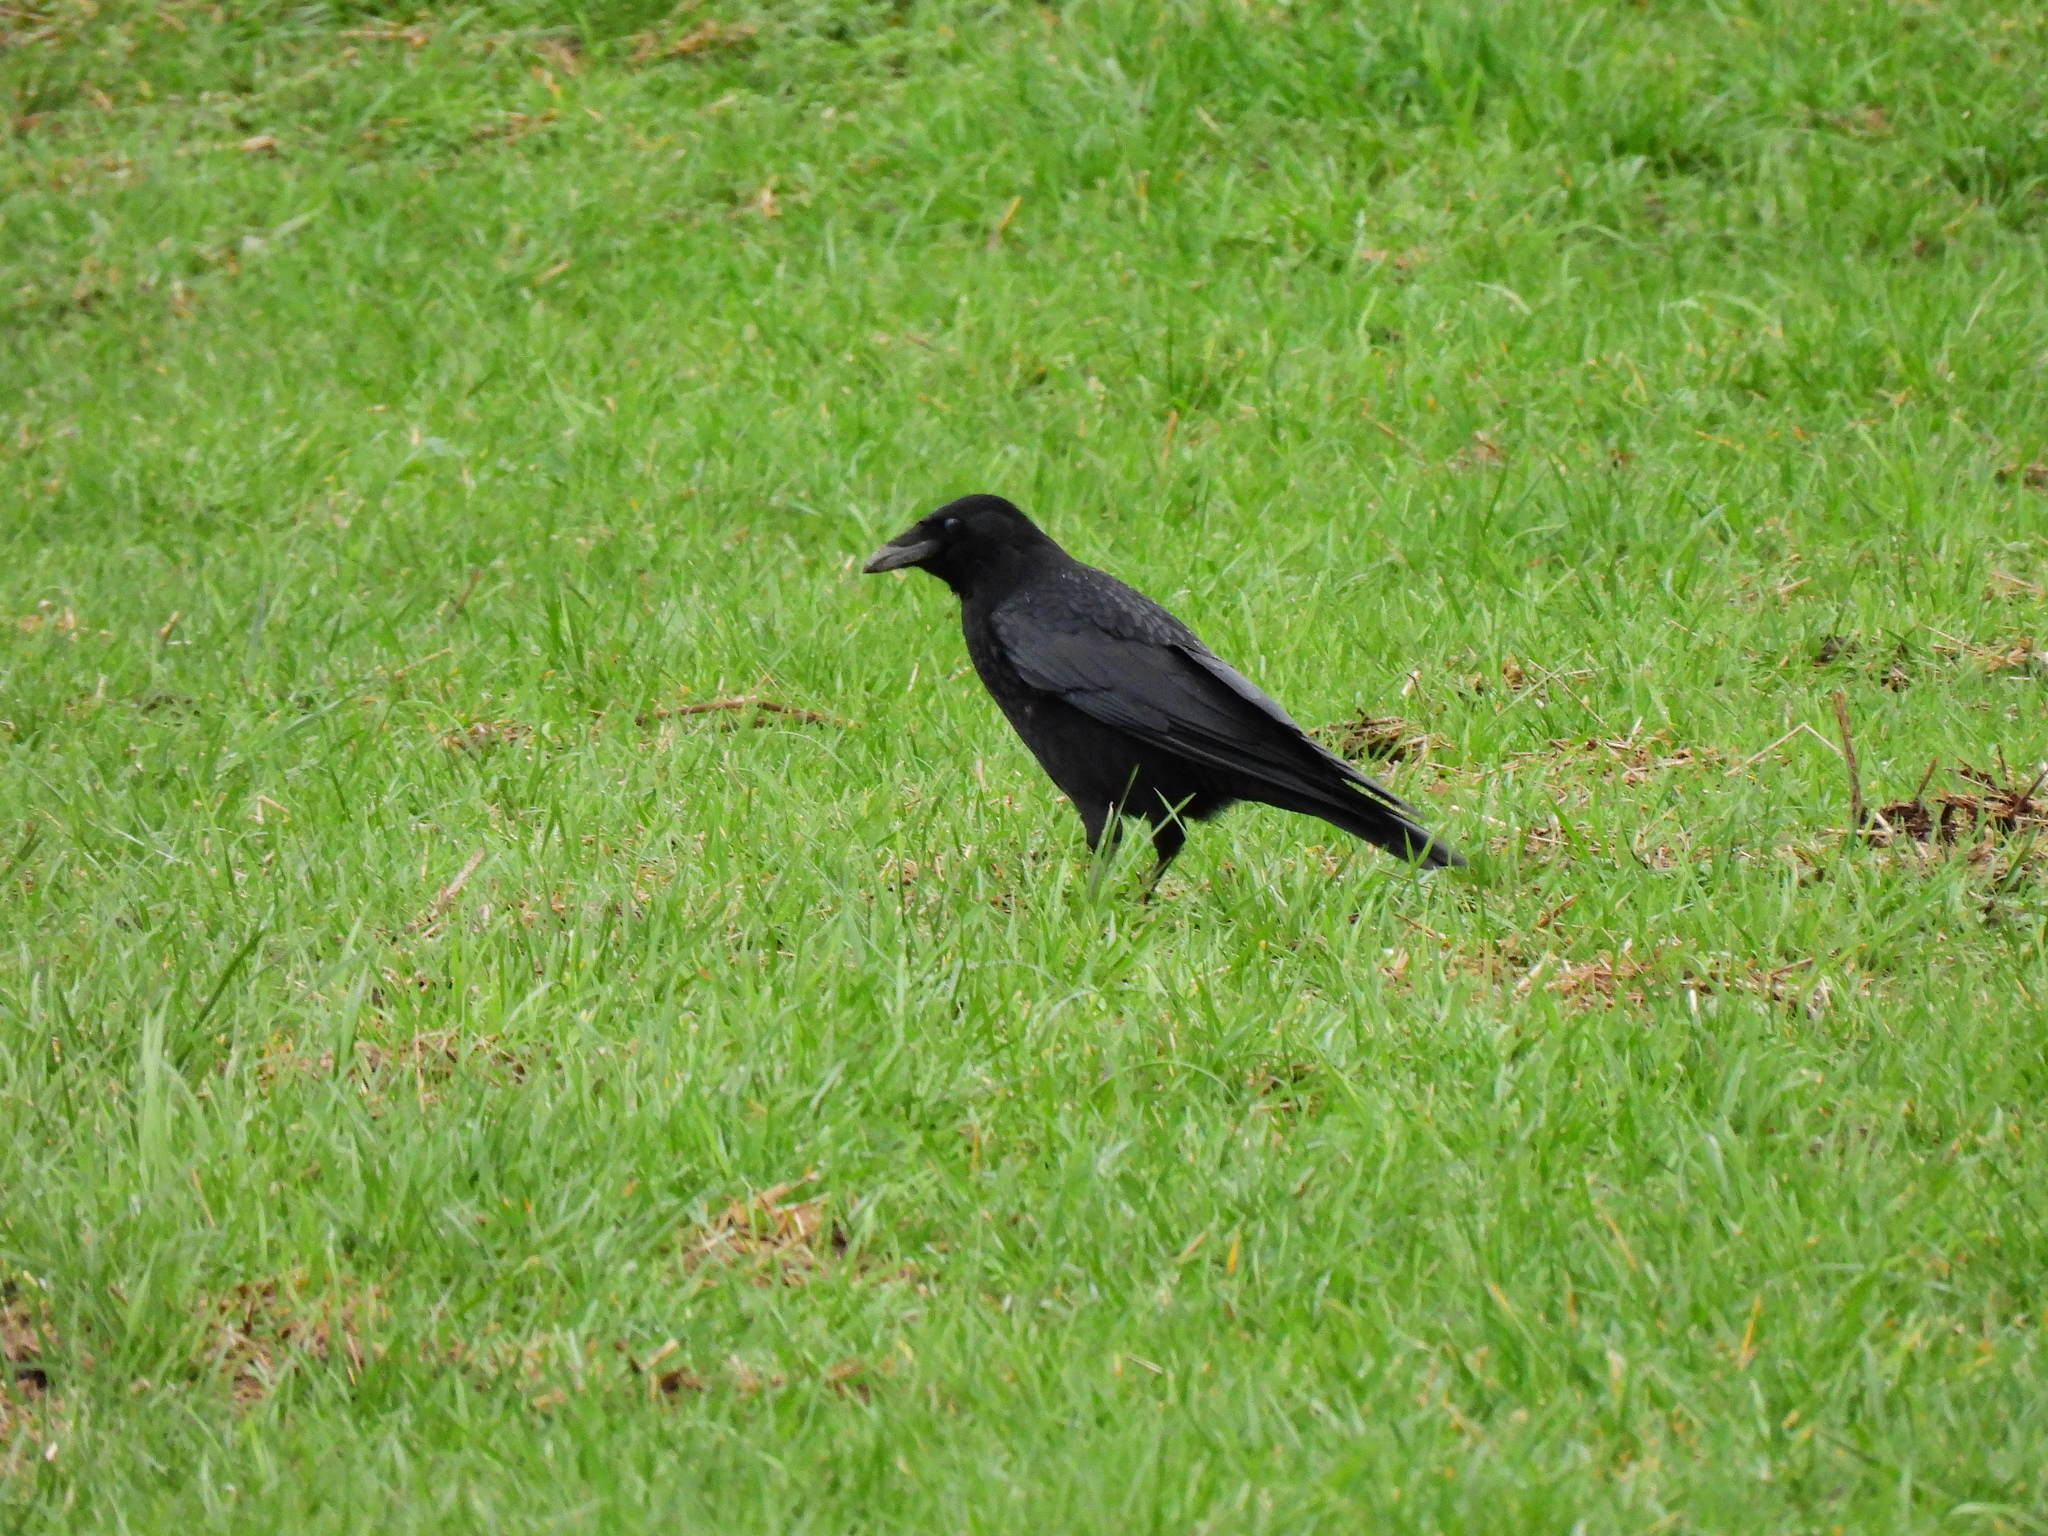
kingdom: Animalia
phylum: Chordata
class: Aves
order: Passeriformes
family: Corvidae
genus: Corvus
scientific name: Corvus corax
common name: Common raven
